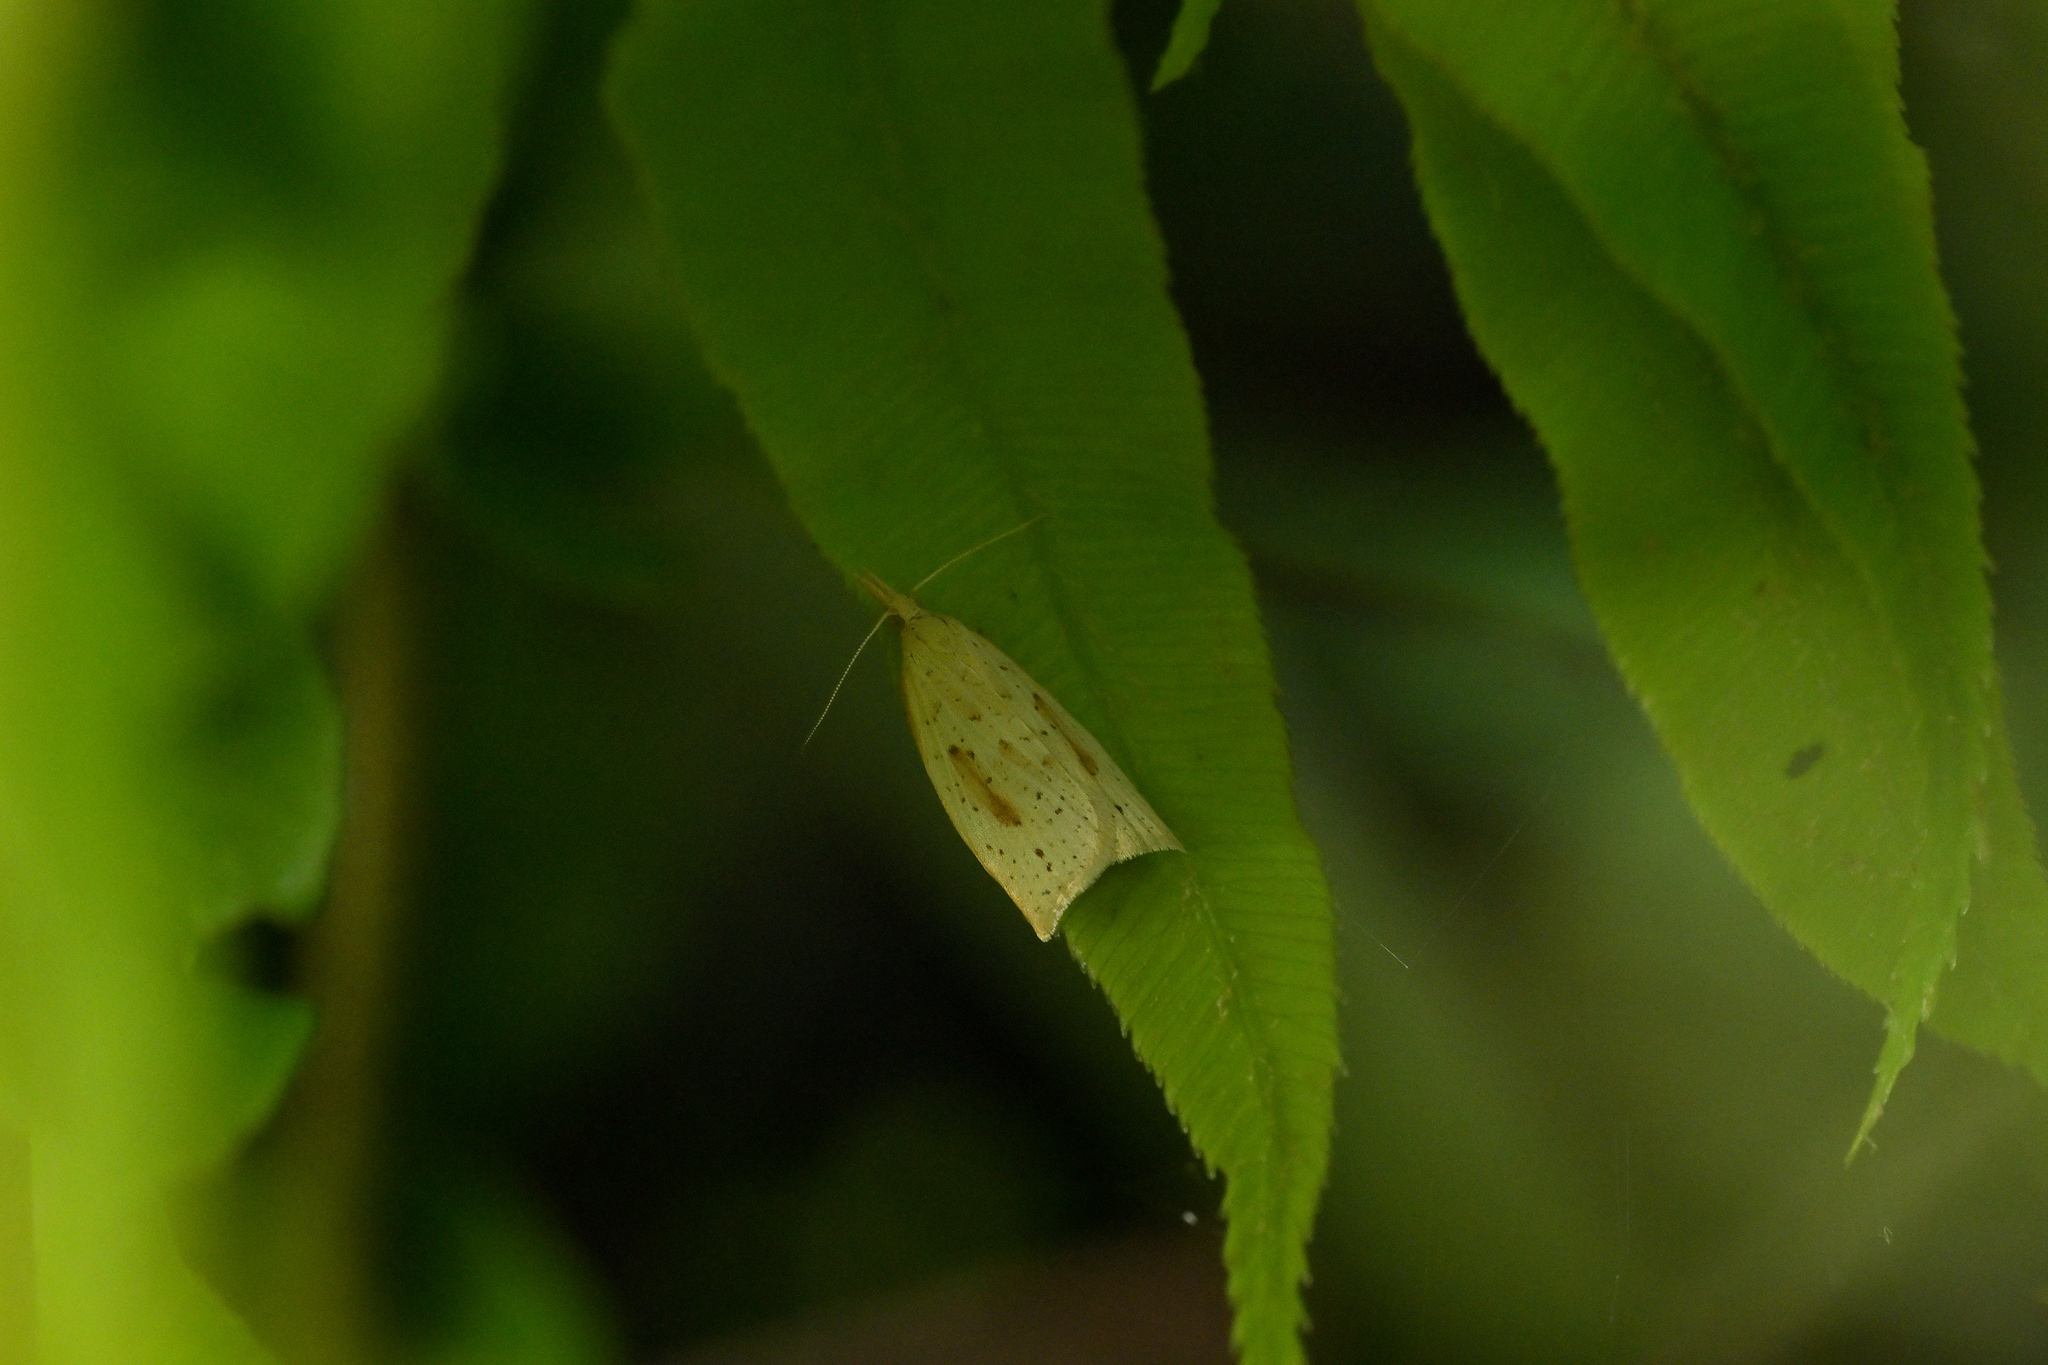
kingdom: Animalia
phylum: Arthropoda
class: Insecta
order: Lepidoptera
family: Tortricidae
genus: Apoctena
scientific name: Apoctena conditana
